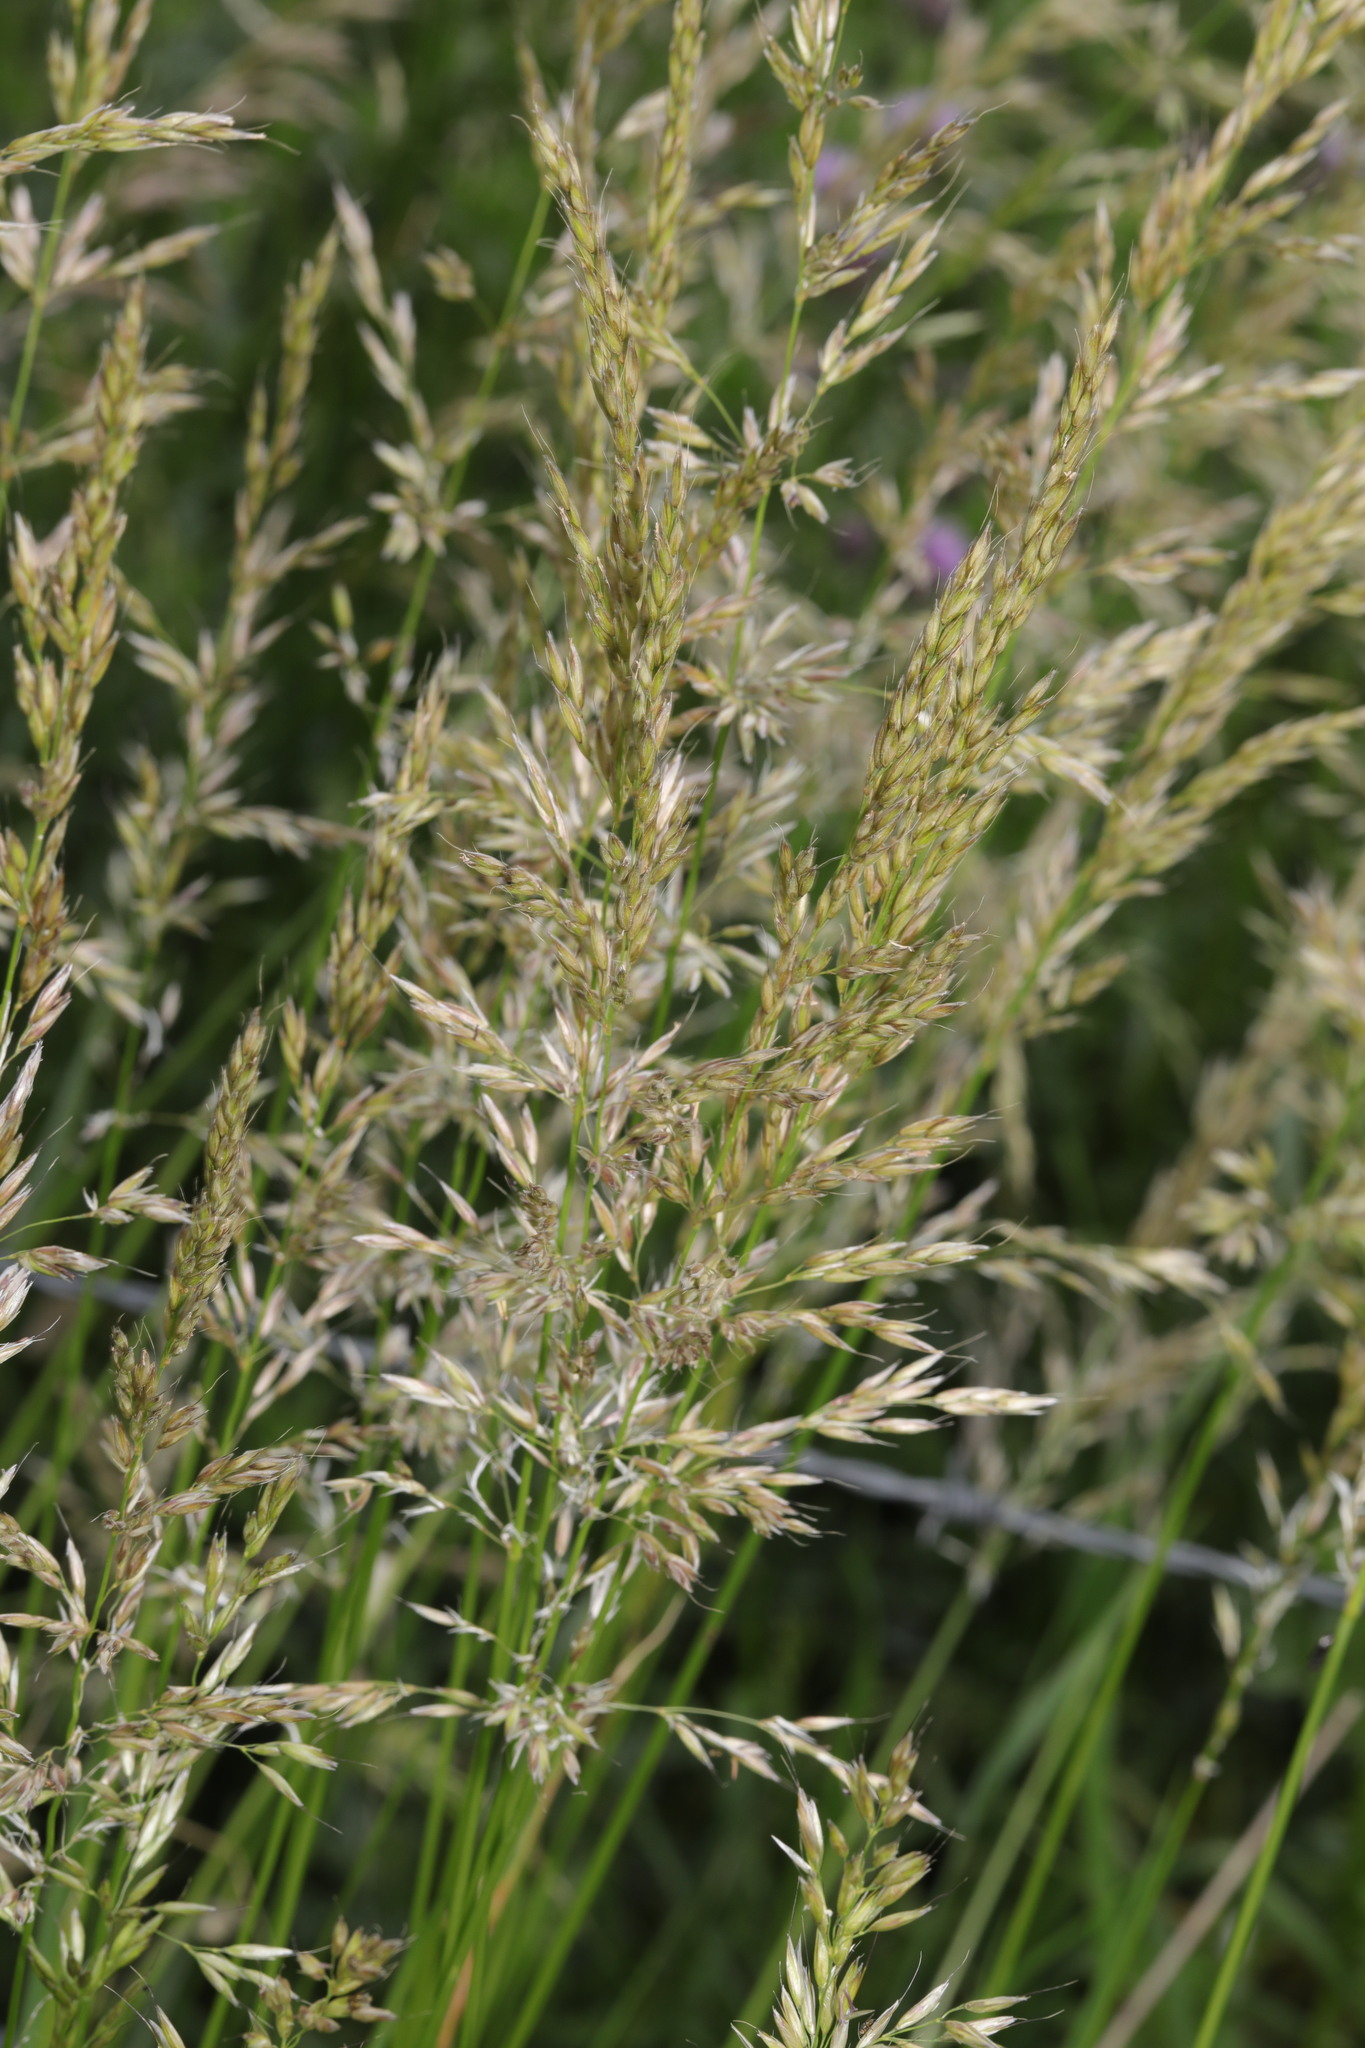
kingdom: Plantae
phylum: Tracheophyta
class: Liliopsida
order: Poales
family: Poaceae
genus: Arrhenatherum
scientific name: Arrhenatherum elatius
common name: Tall oatgrass
